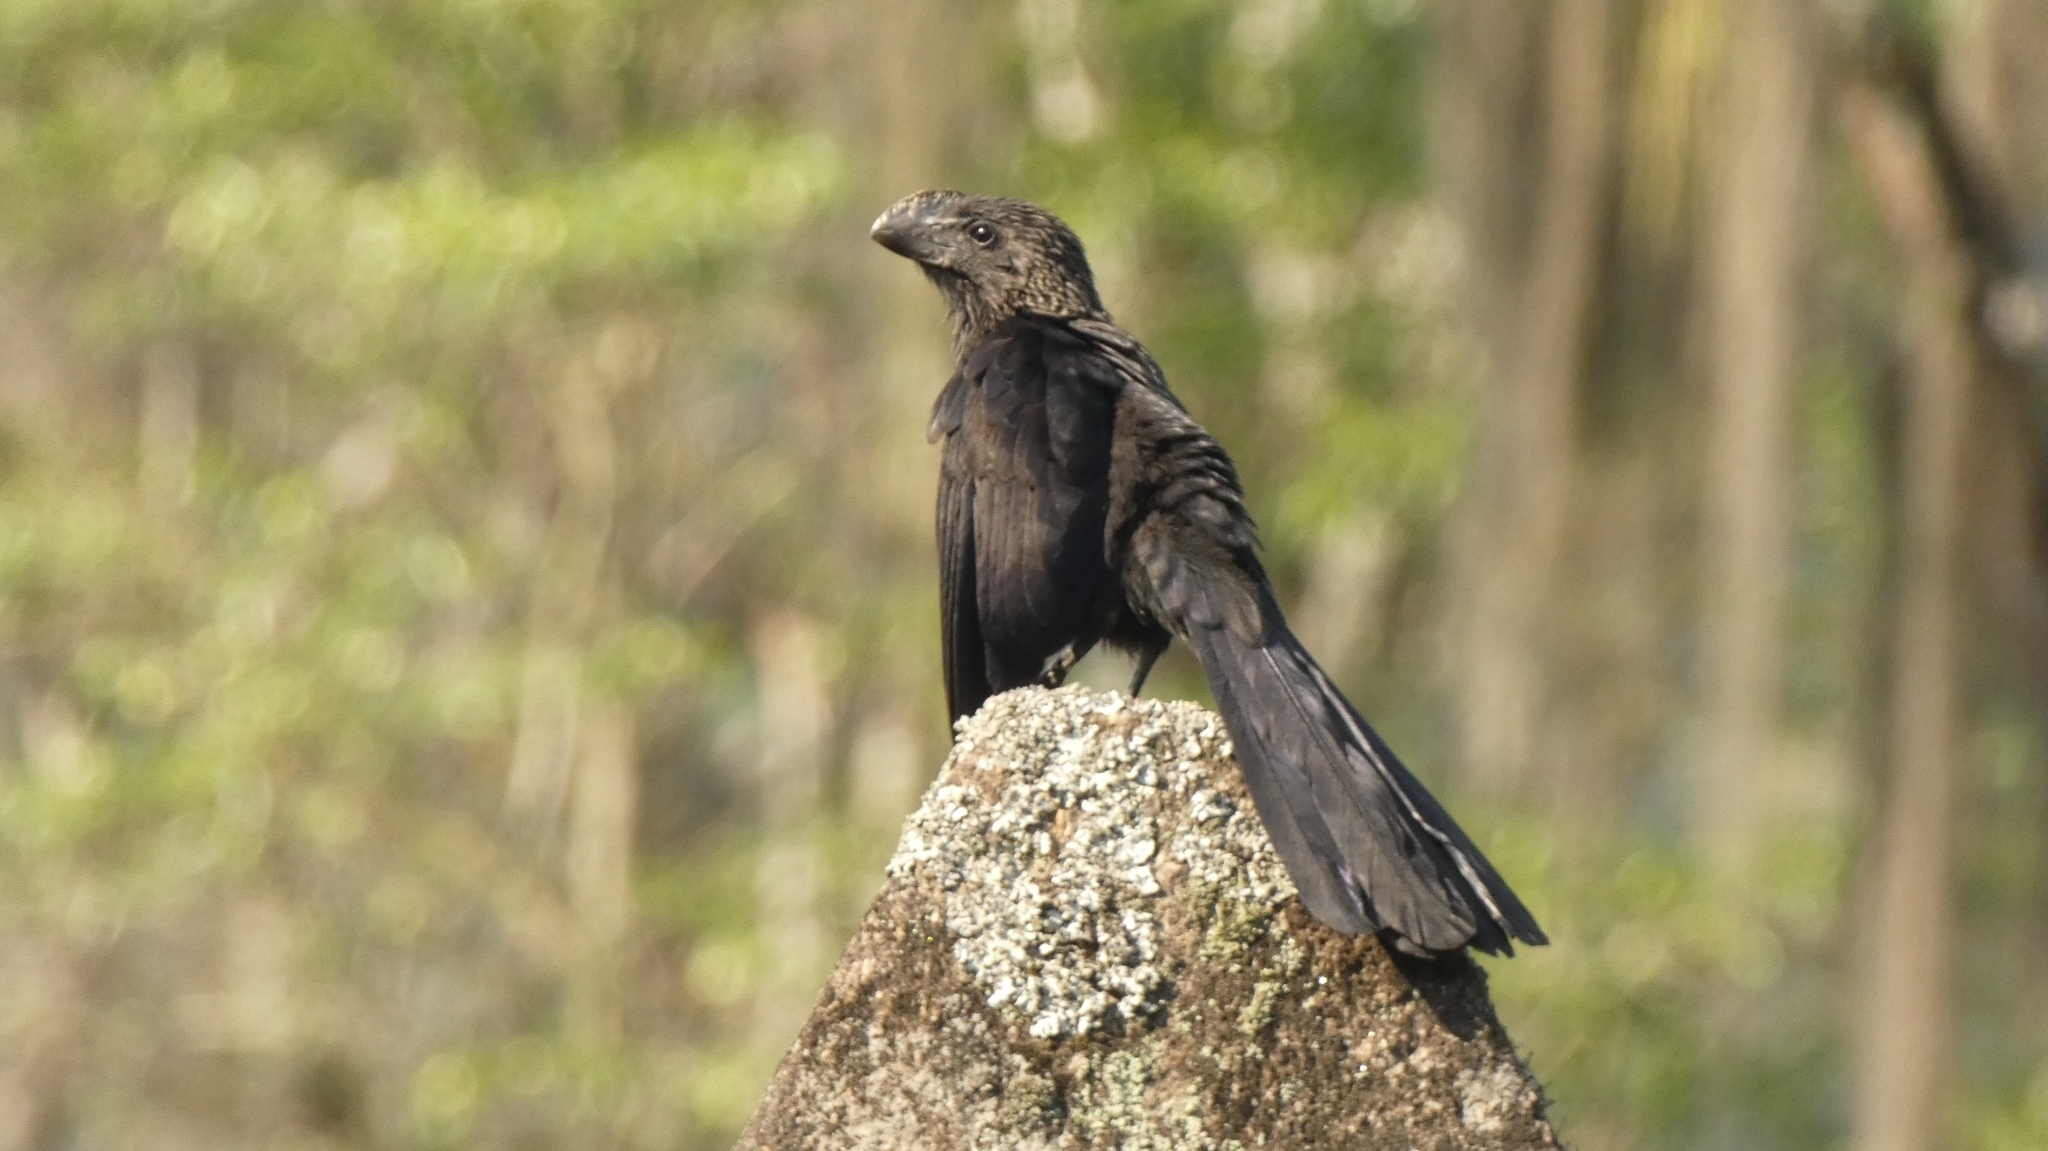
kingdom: Animalia
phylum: Chordata
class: Aves
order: Cuculiformes
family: Cuculidae
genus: Crotophaga
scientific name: Crotophaga ani
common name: Smooth-billed ani
